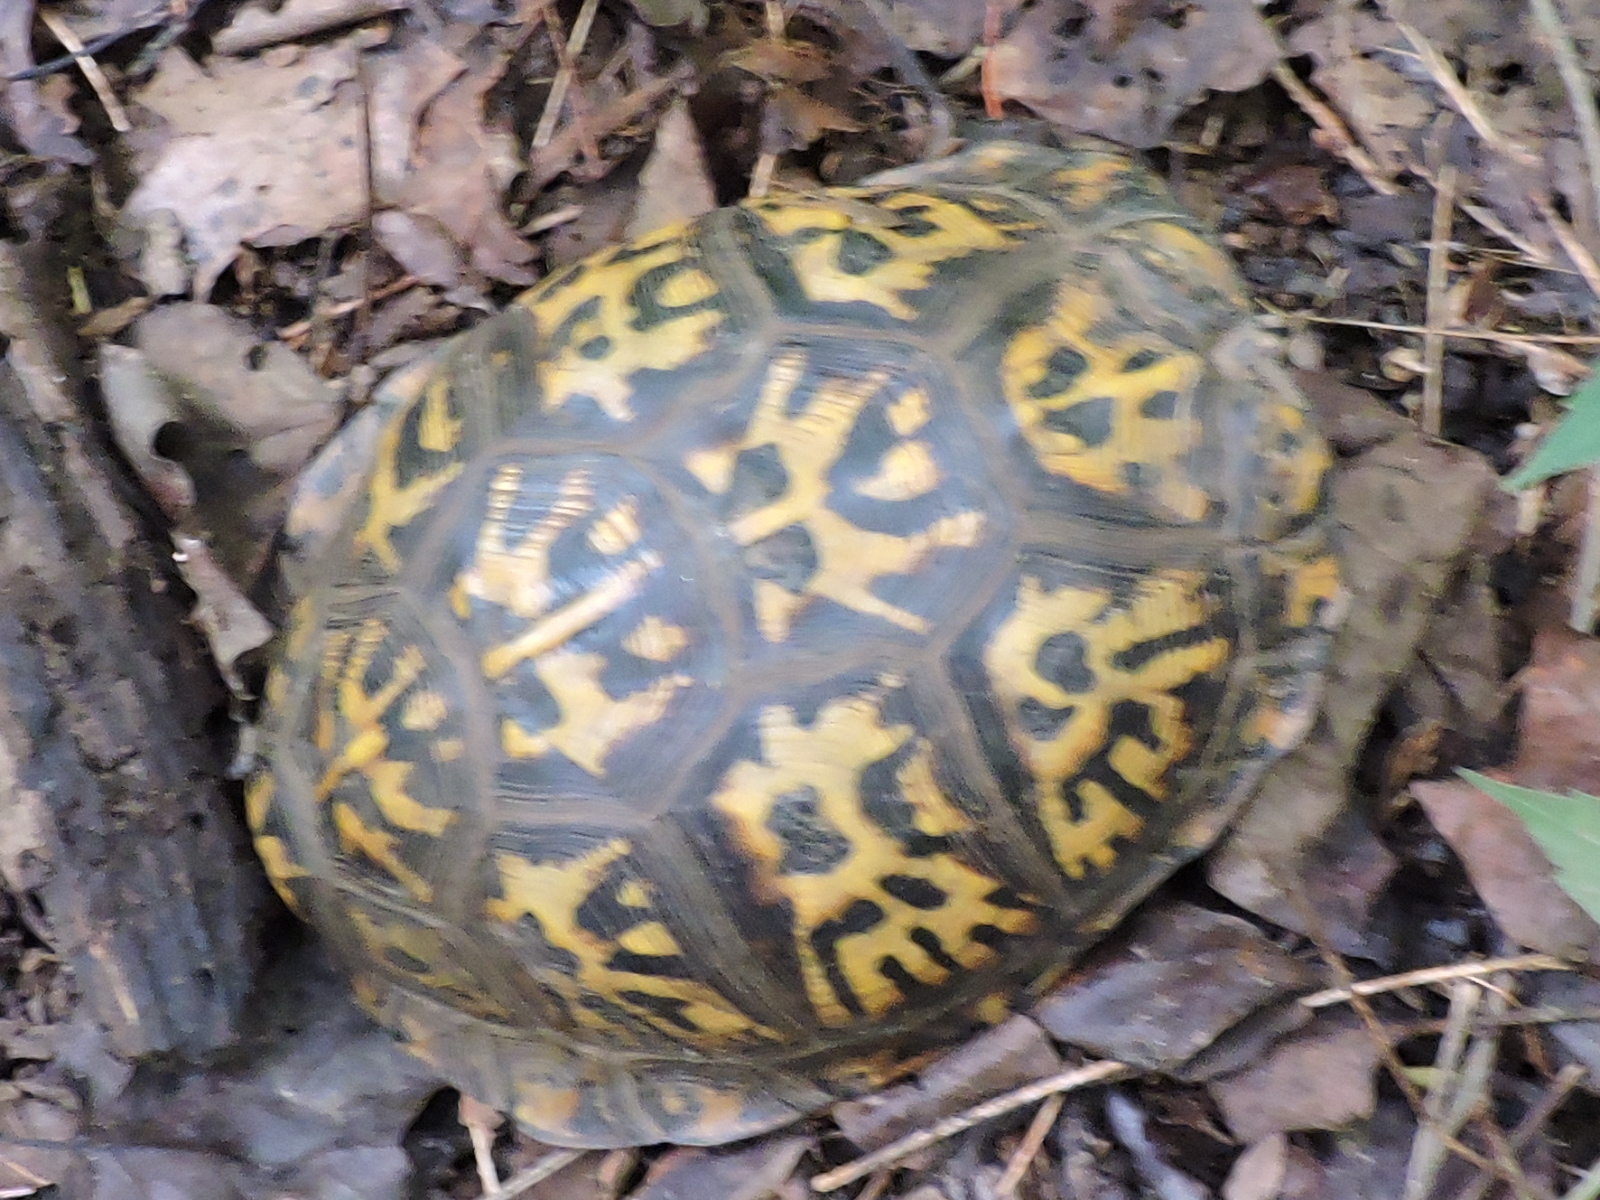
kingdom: Animalia
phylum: Chordata
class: Testudines
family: Emydidae
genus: Terrapene
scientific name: Terrapene carolina
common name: Common box turtle
